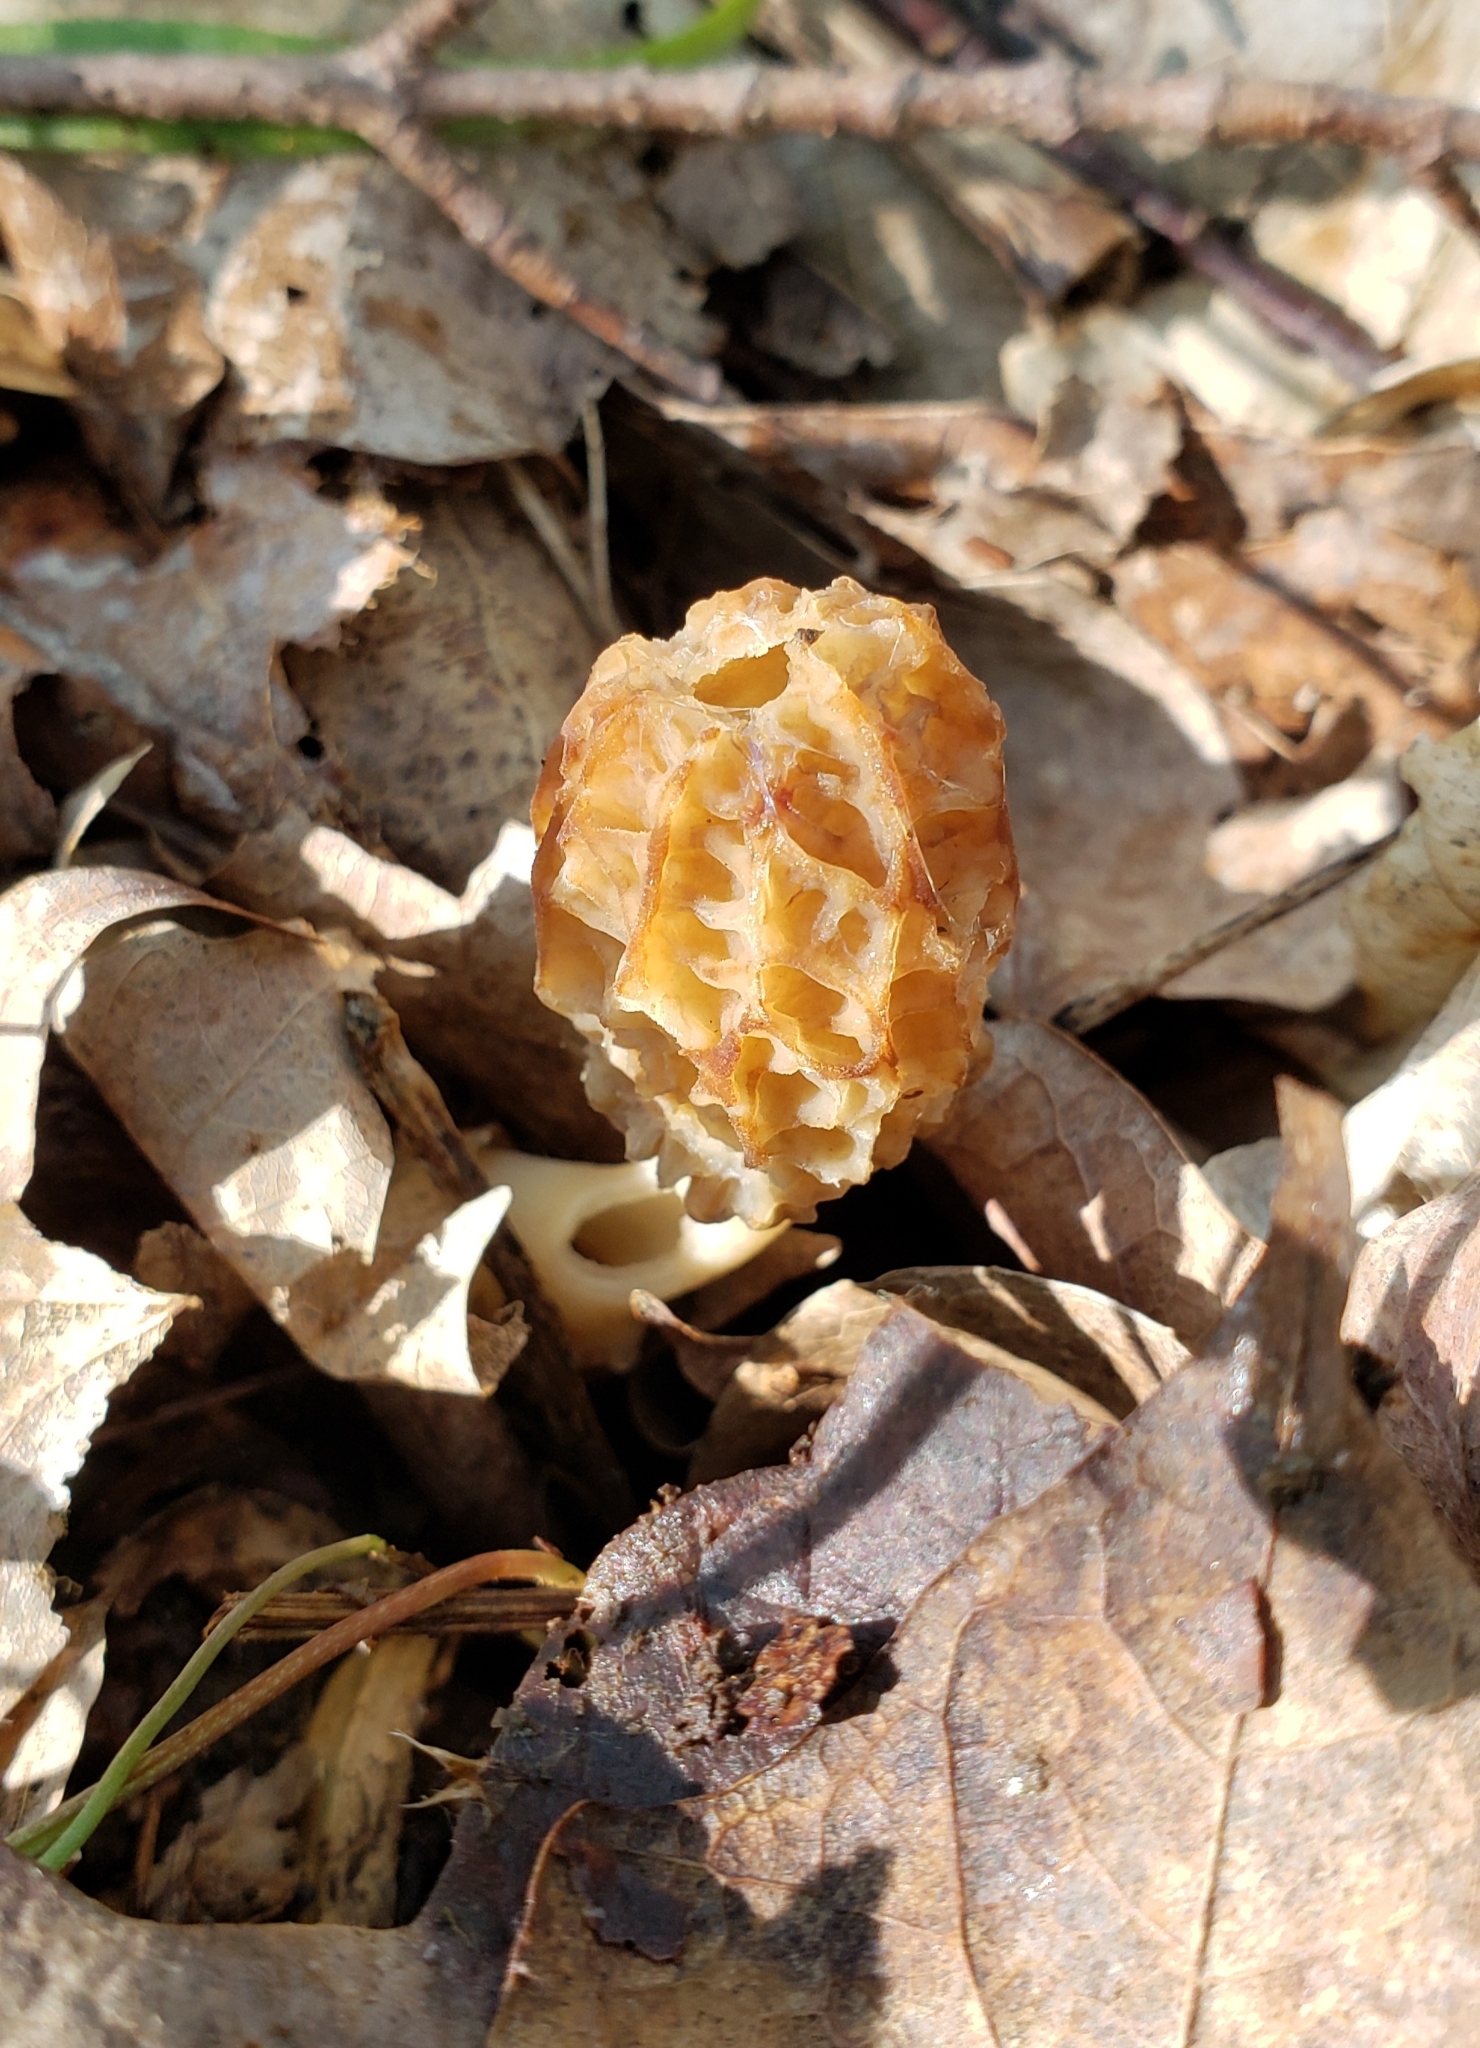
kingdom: Fungi
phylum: Ascomycota
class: Pezizomycetes
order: Pezizales
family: Morchellaceae
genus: Morchella
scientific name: Morchella sceptriformis
